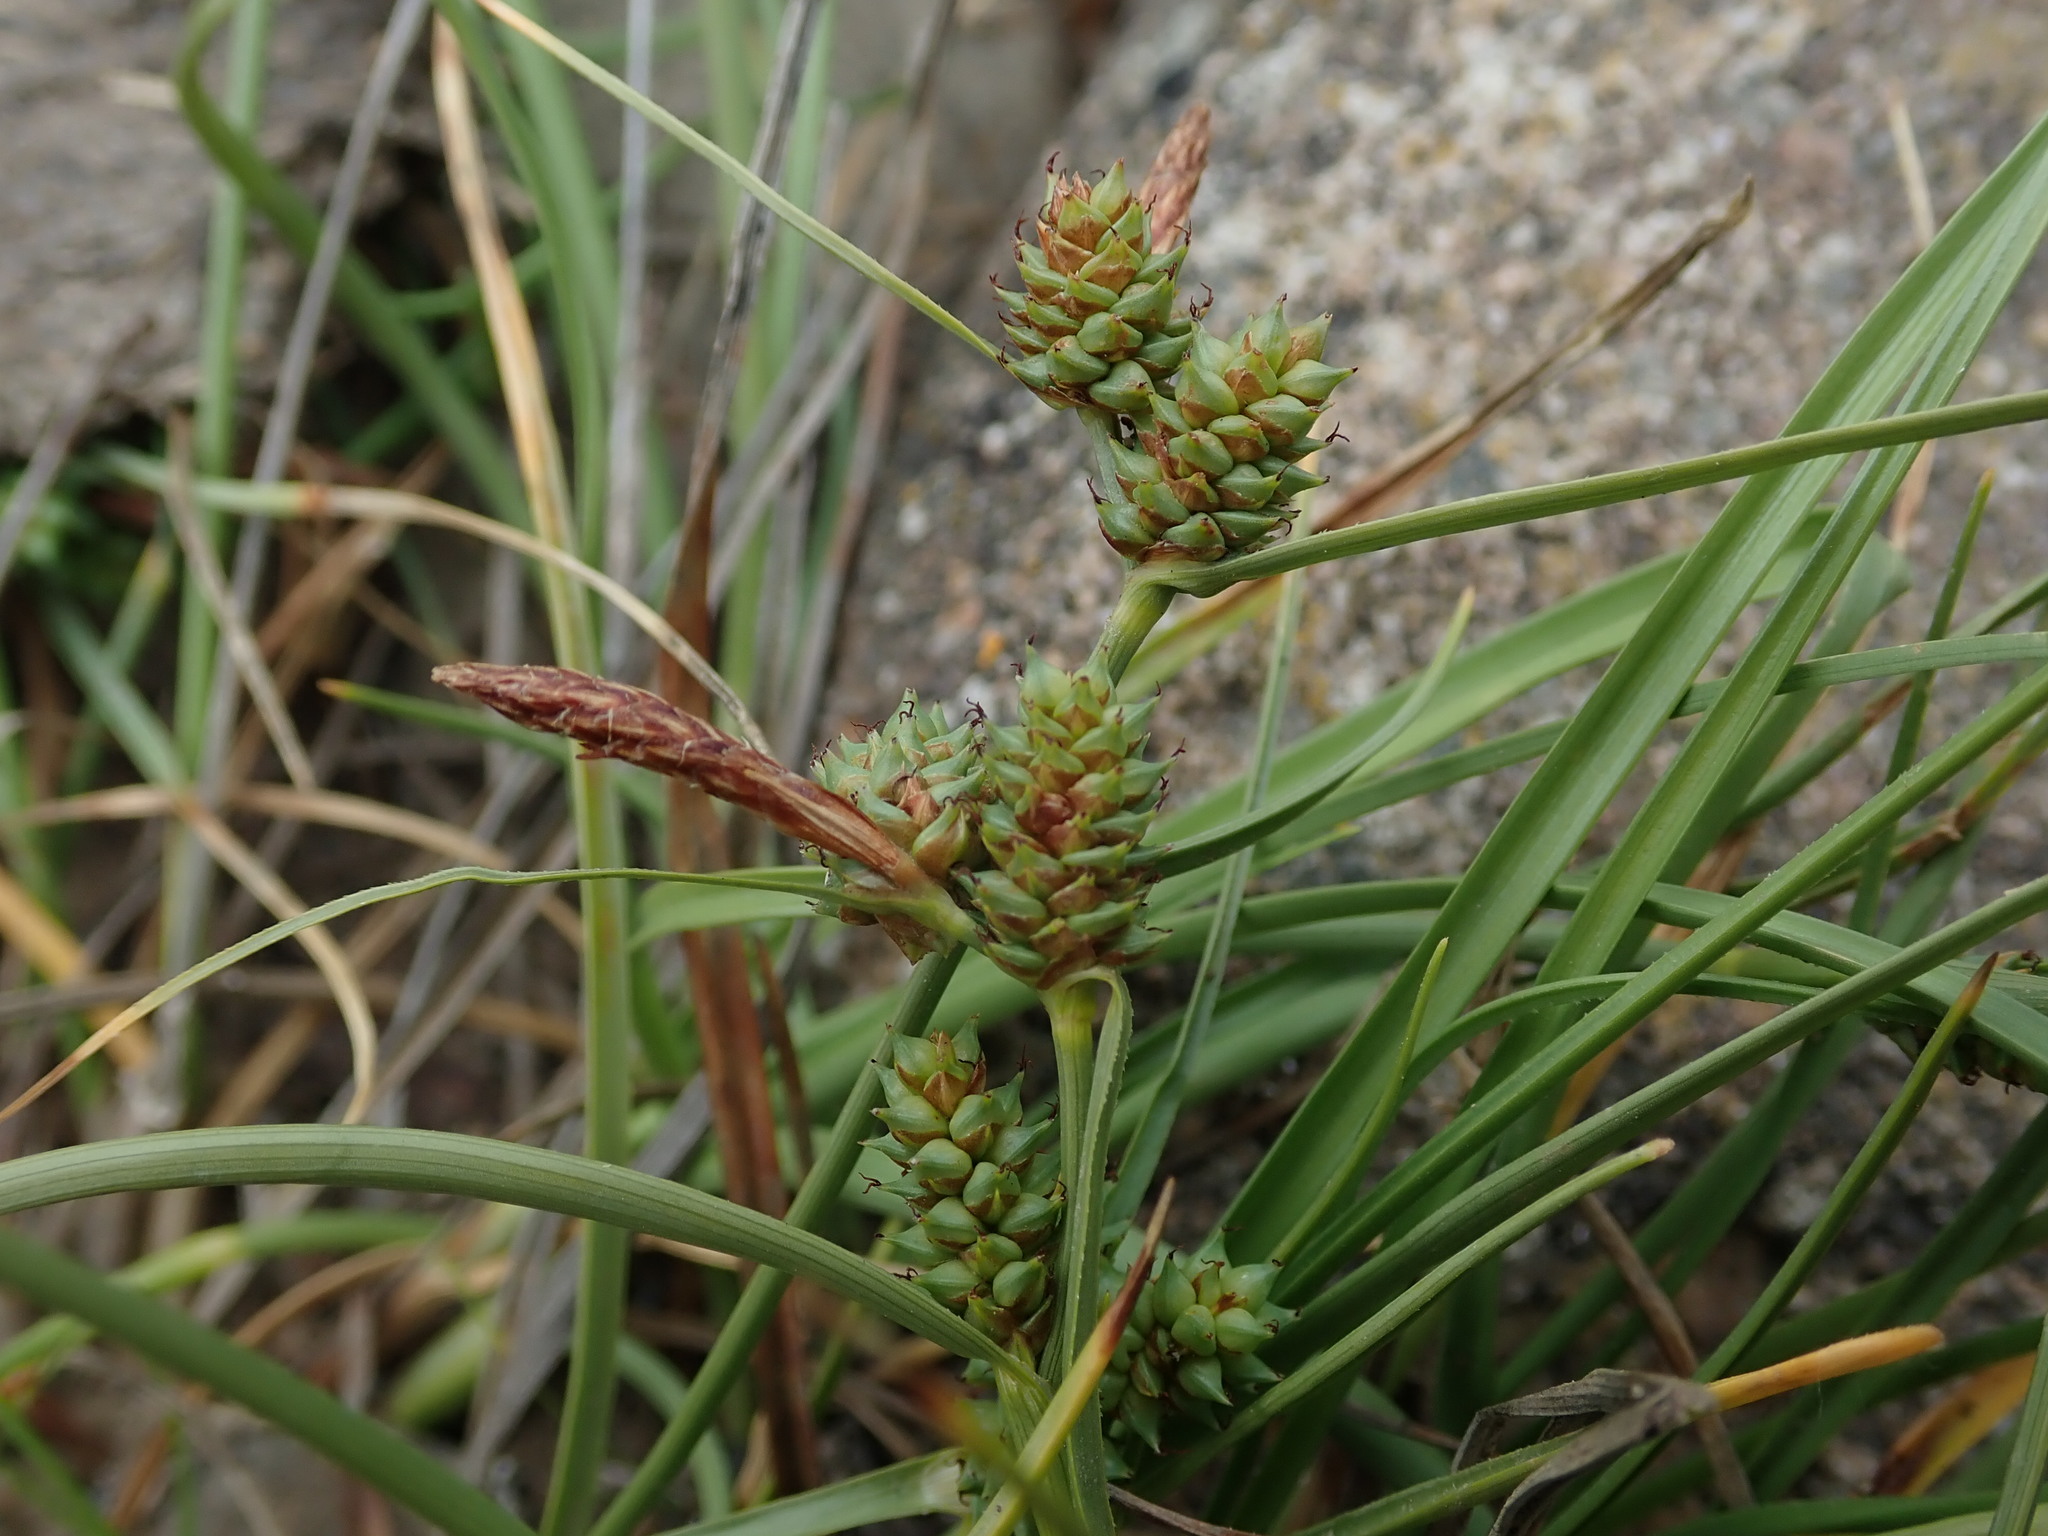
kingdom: Plantae
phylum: Tracheophyta
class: Liliopsida
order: Poales
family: Cyperaceae
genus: Carex
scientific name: Carex extensa
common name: Long-bracted sedge
